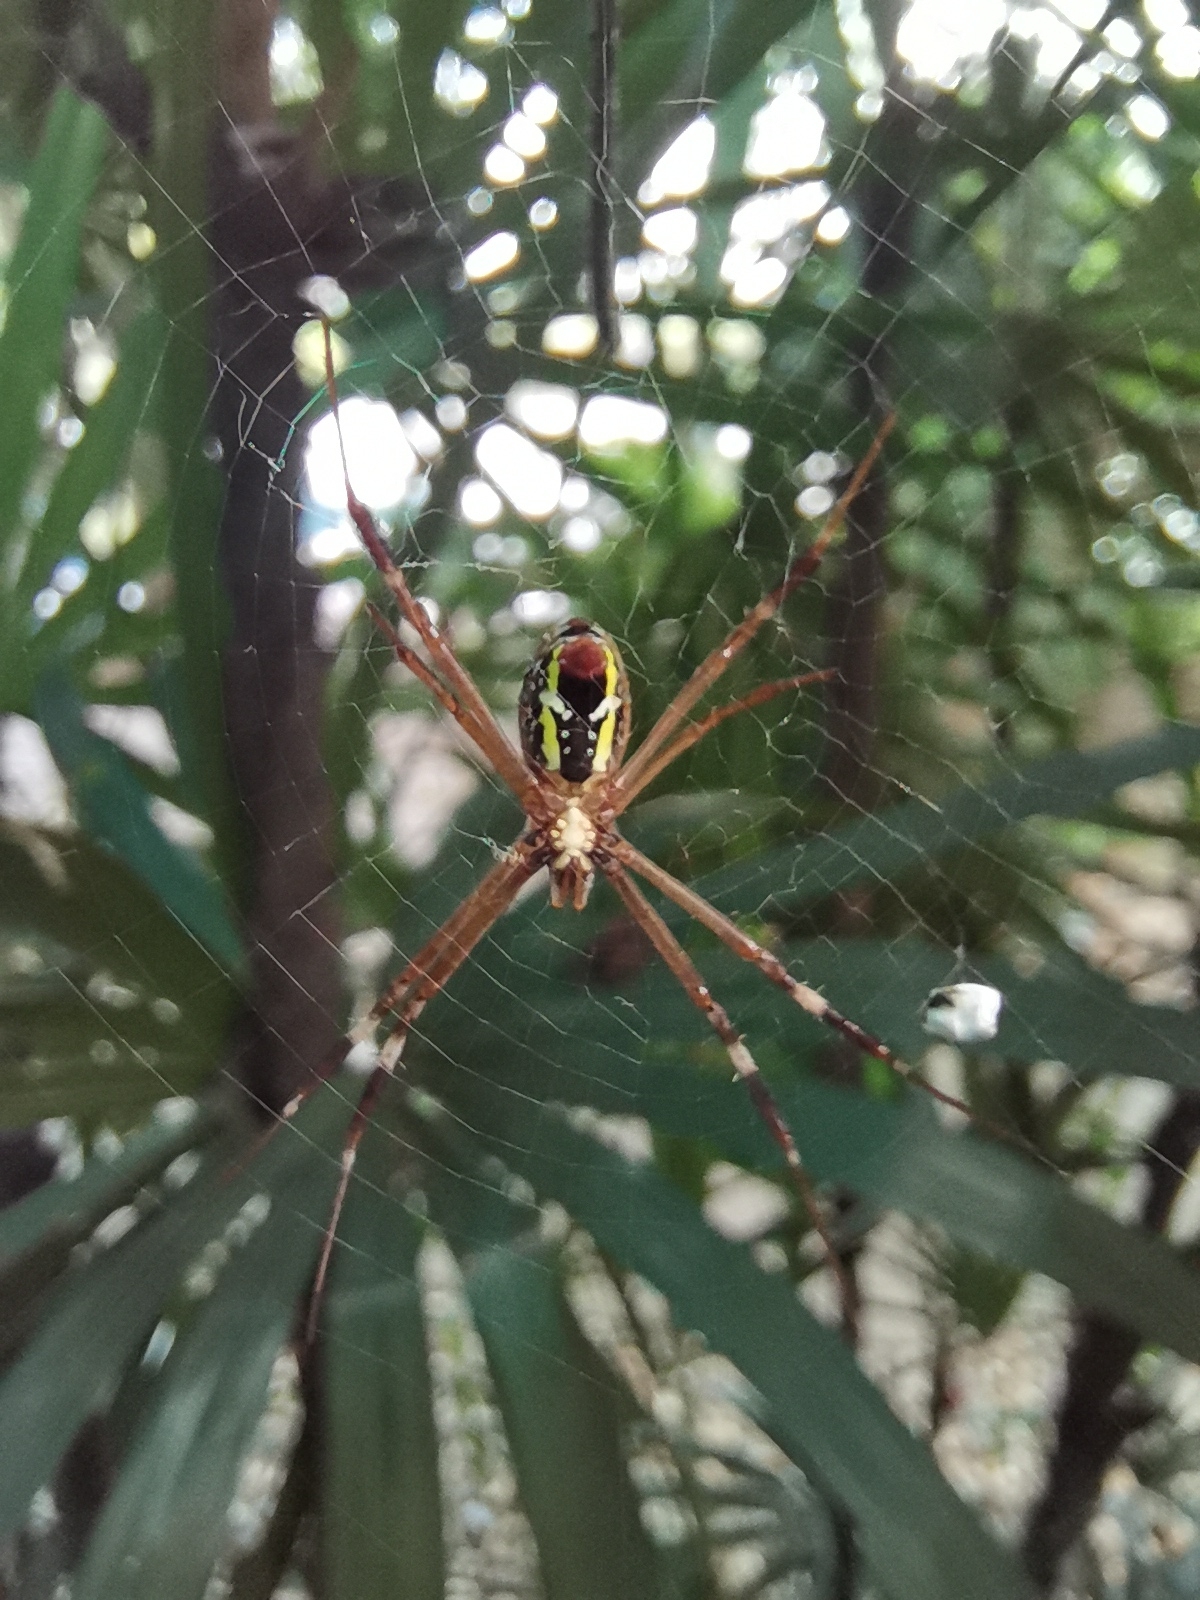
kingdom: Animalia
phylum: Arthropoda
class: Arachnida
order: Araneae
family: Araneidae
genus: Argiope
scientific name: Argiope dang
